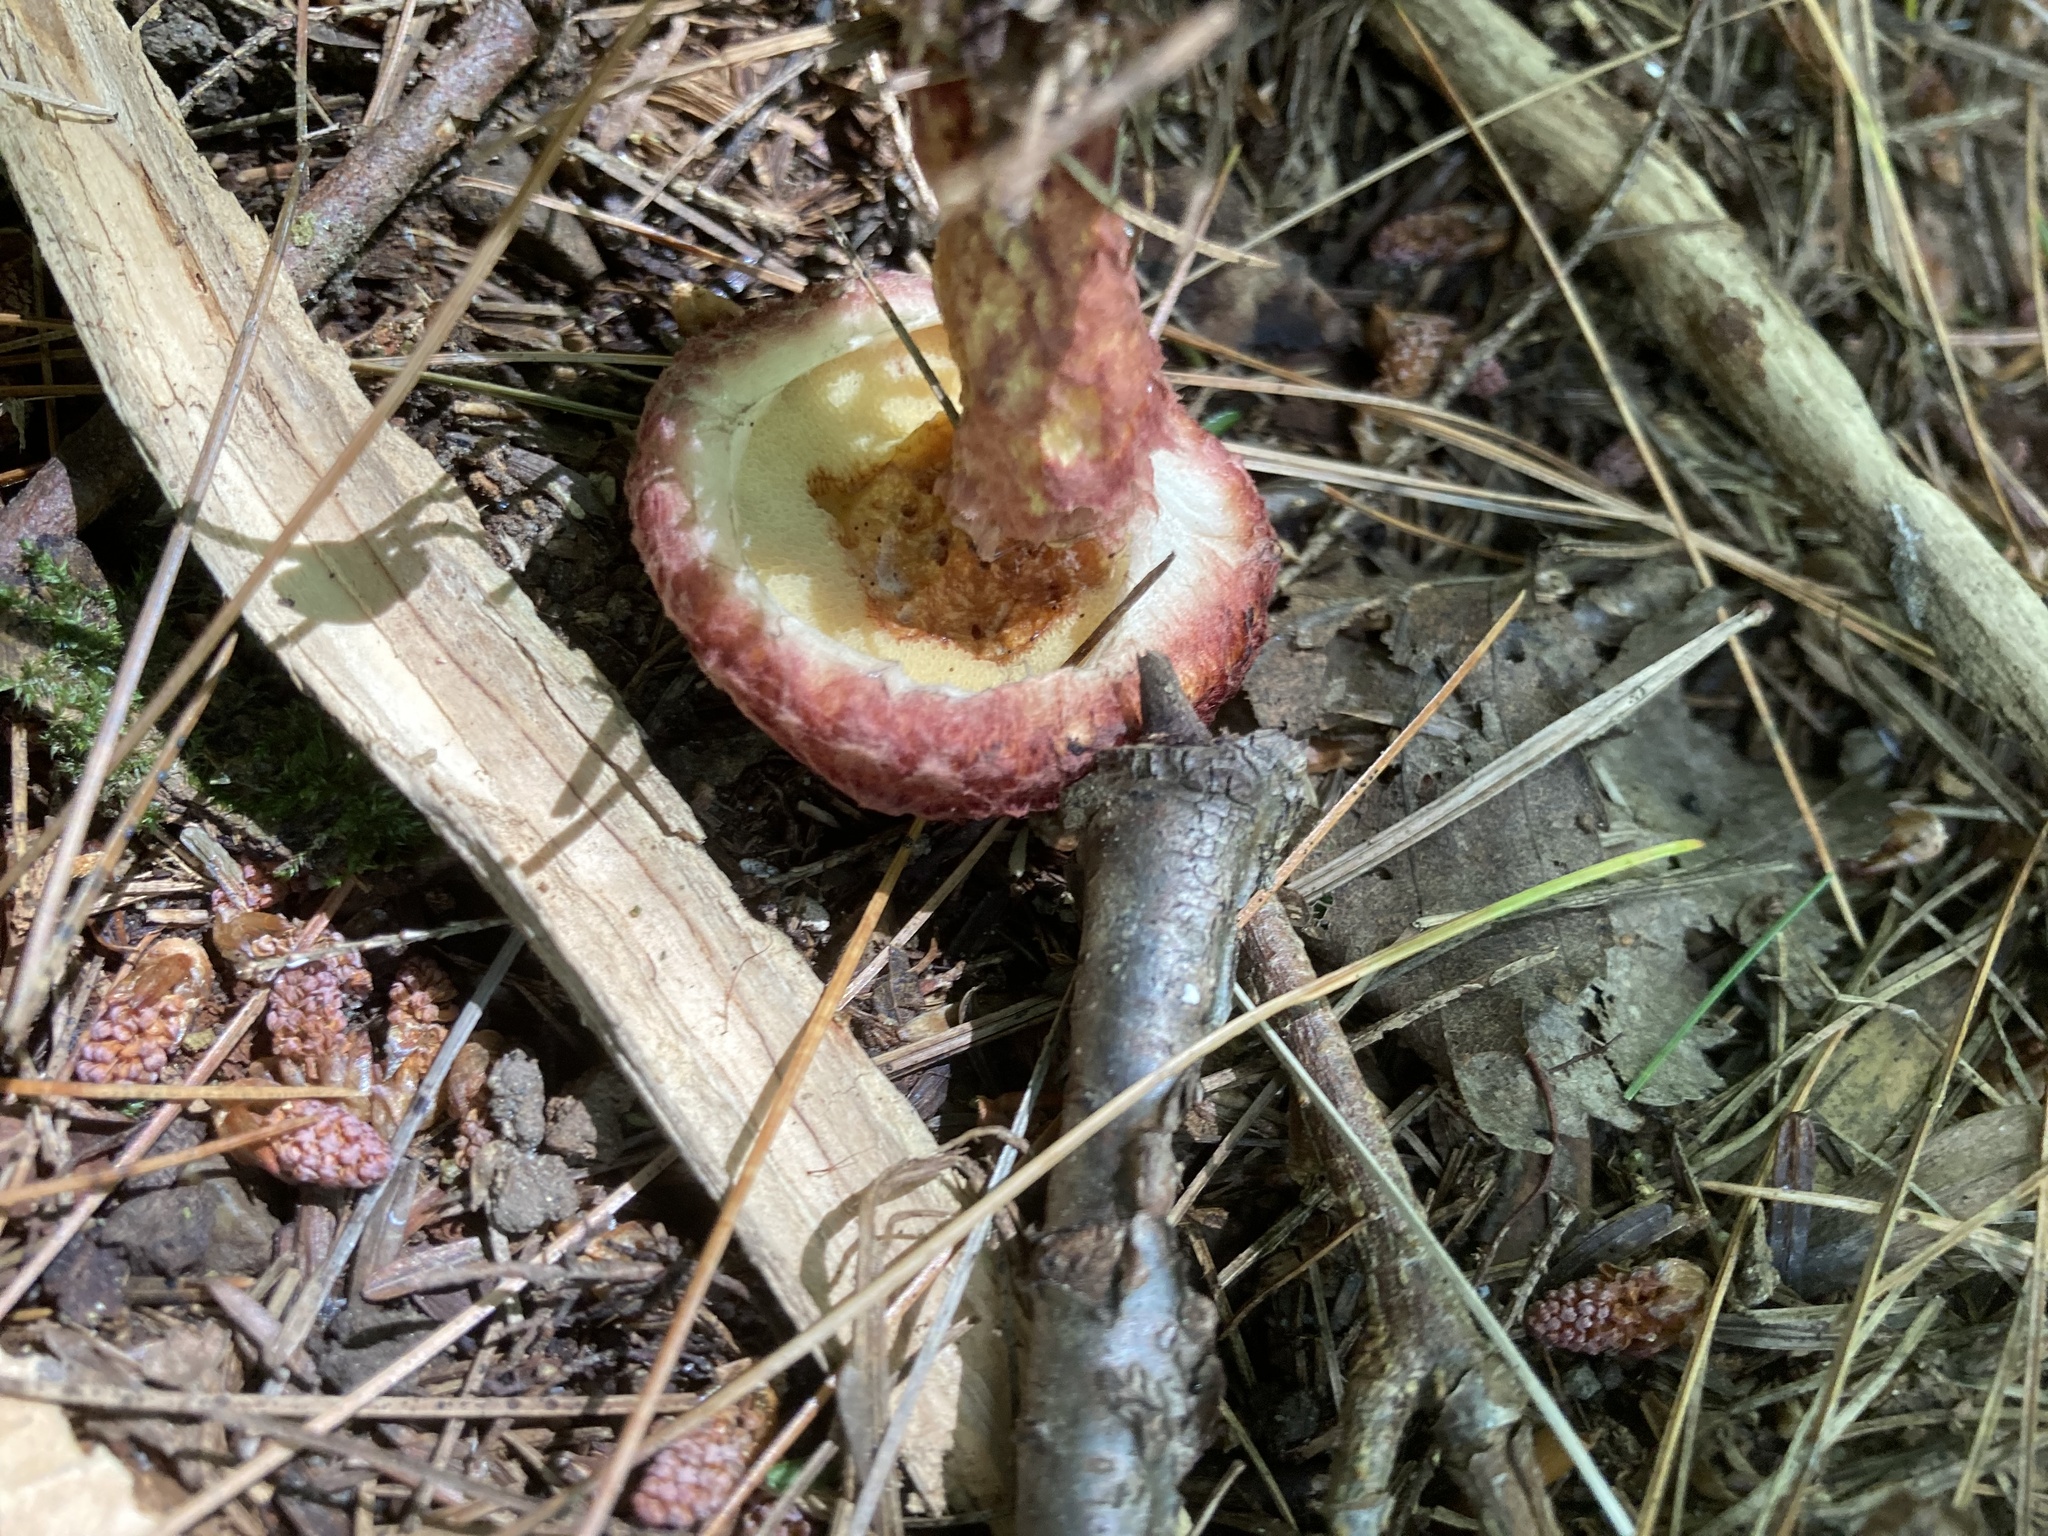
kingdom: Fungi
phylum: Basidiomycota
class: Agaricomycetes
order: Boletales
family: Suillaceae
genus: Suillus
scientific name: Suillus spraguei
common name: Painted suillus
